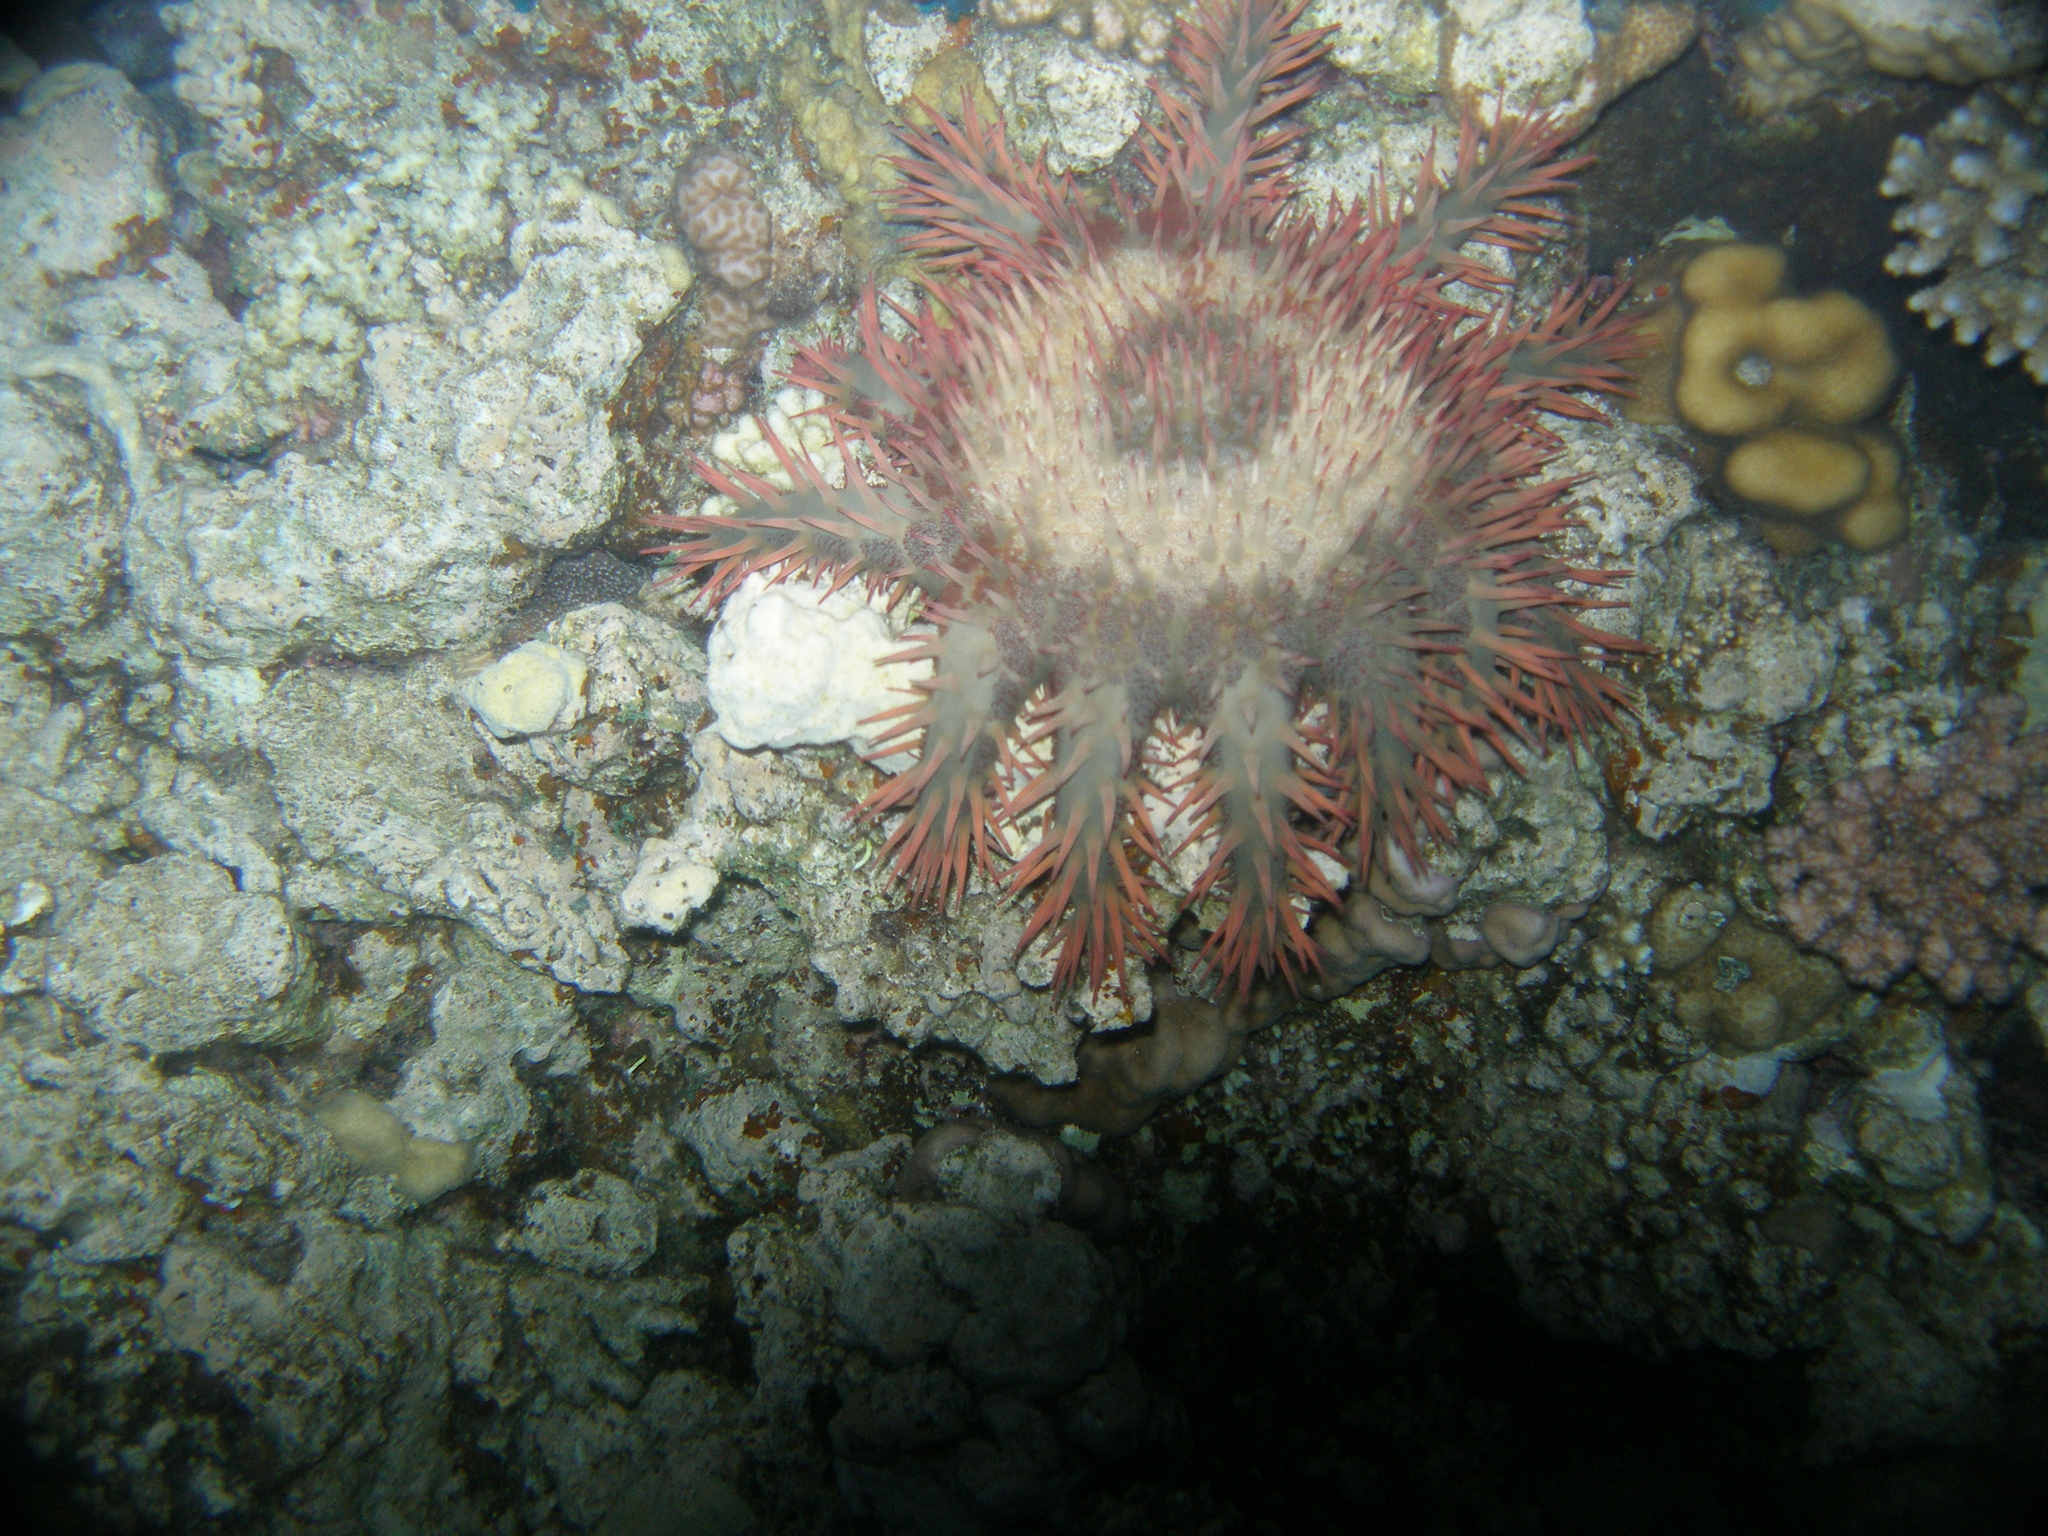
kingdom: Animalia
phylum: Echinodermata
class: Asteroidea
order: Valvatida
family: Acanthasteridae
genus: Acanthaster
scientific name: Acanthaster benziei
